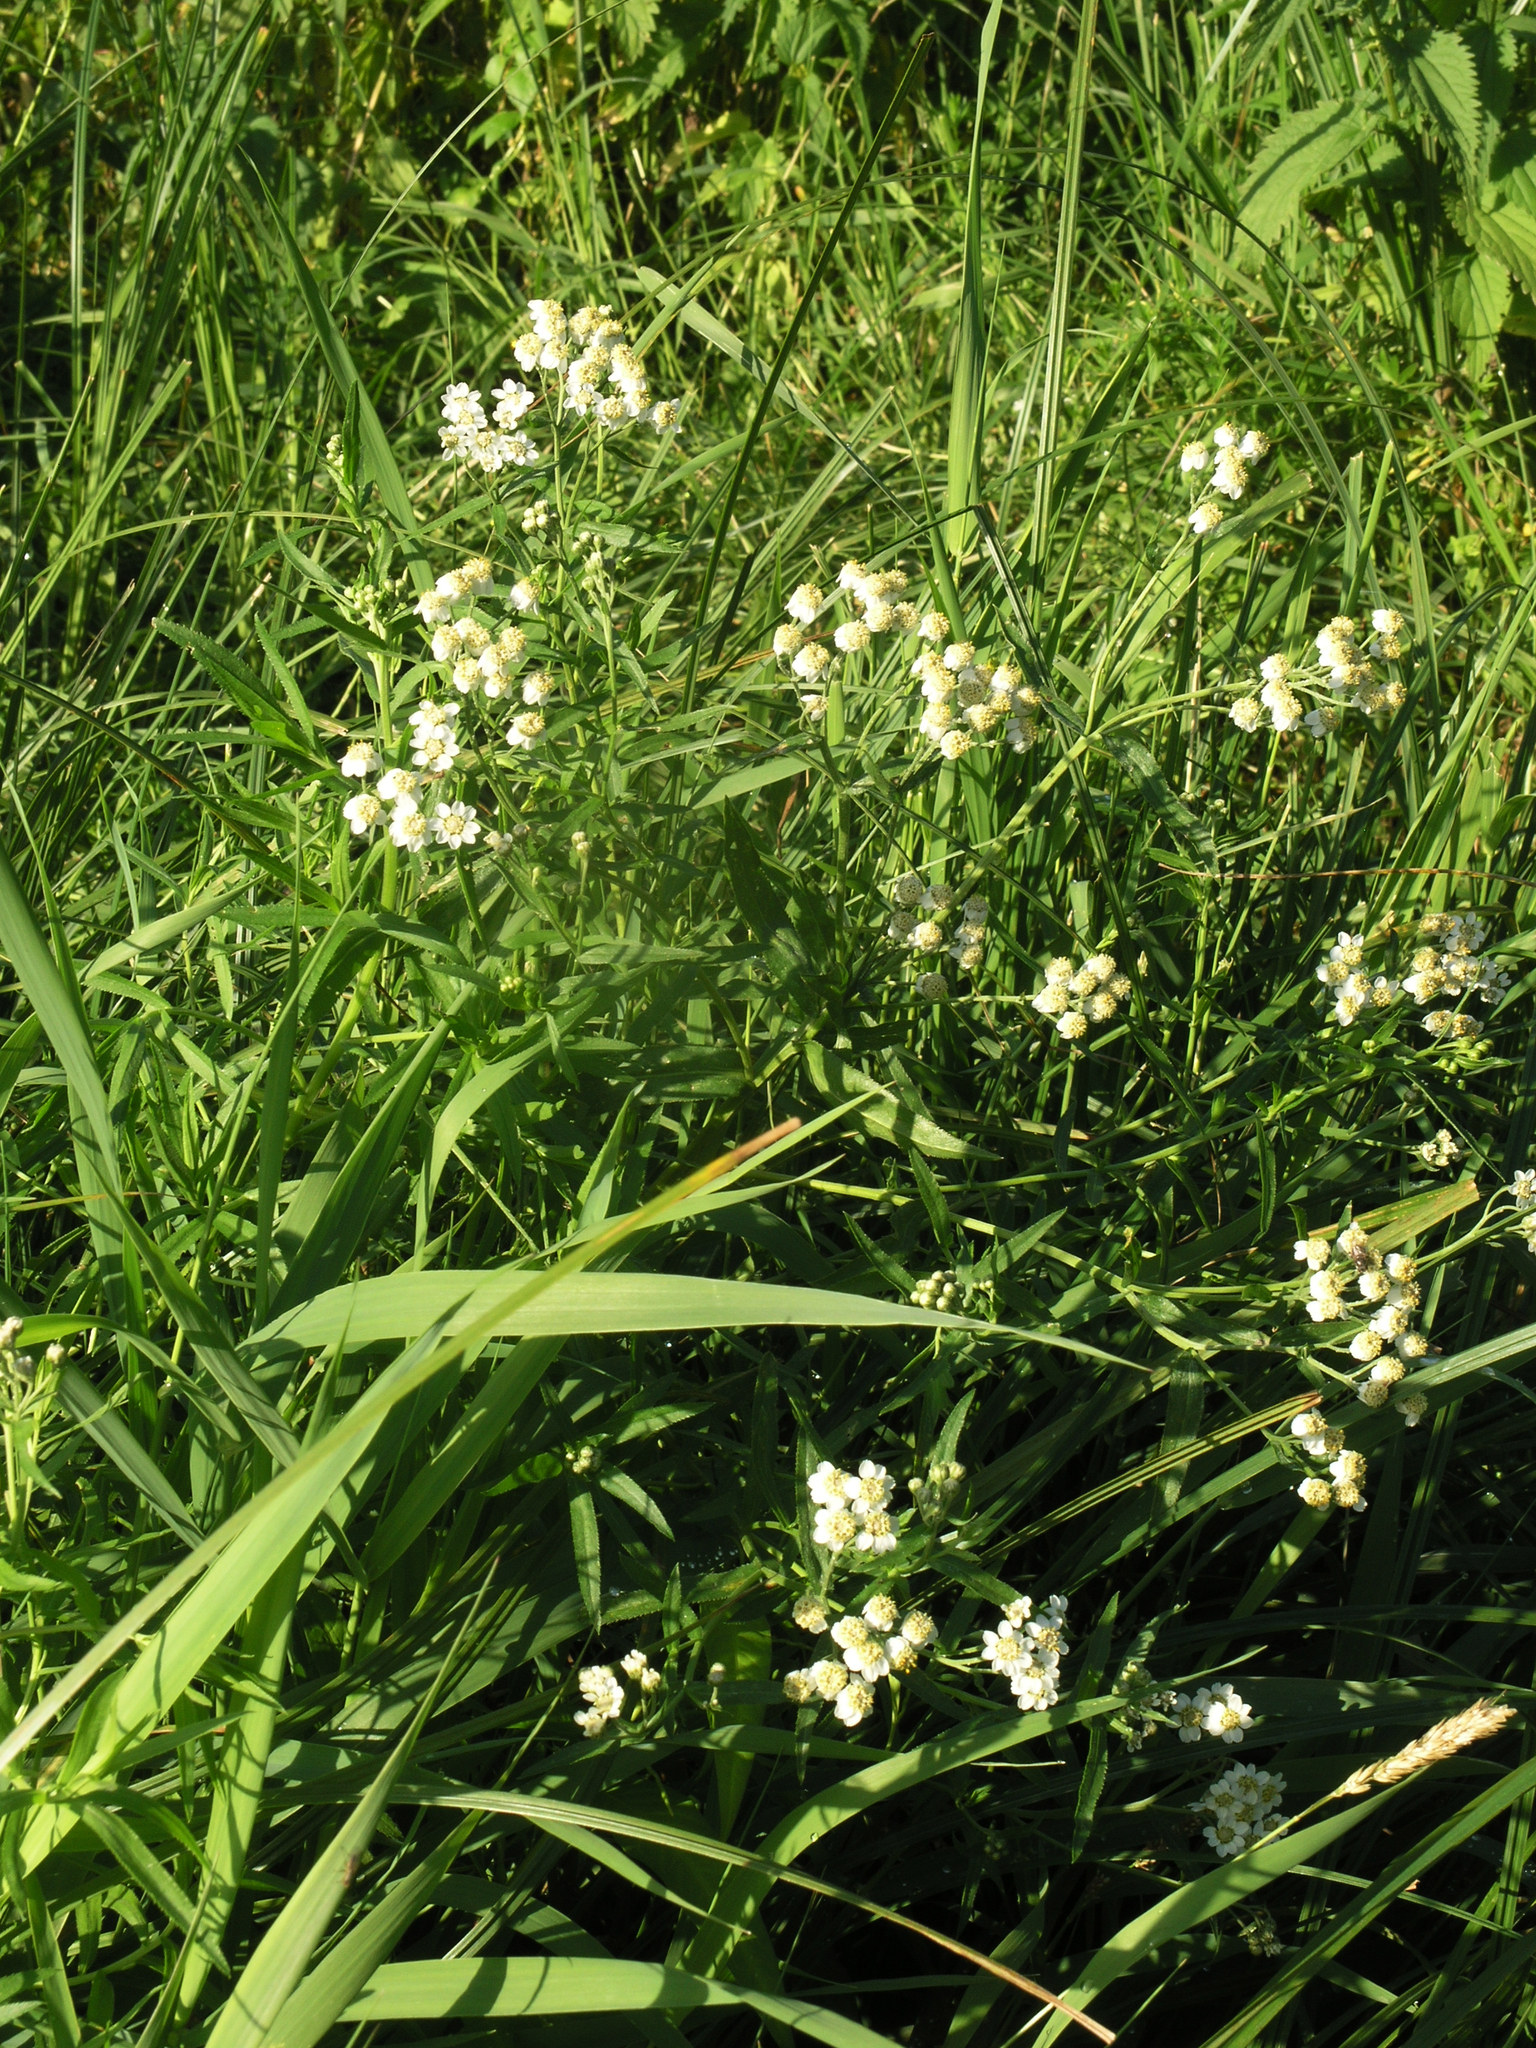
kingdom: Plantae
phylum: Tracheophyta
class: Magnoliopsida
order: Asterales
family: Asteraceae
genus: Achillea
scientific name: Achillea salicifolia
